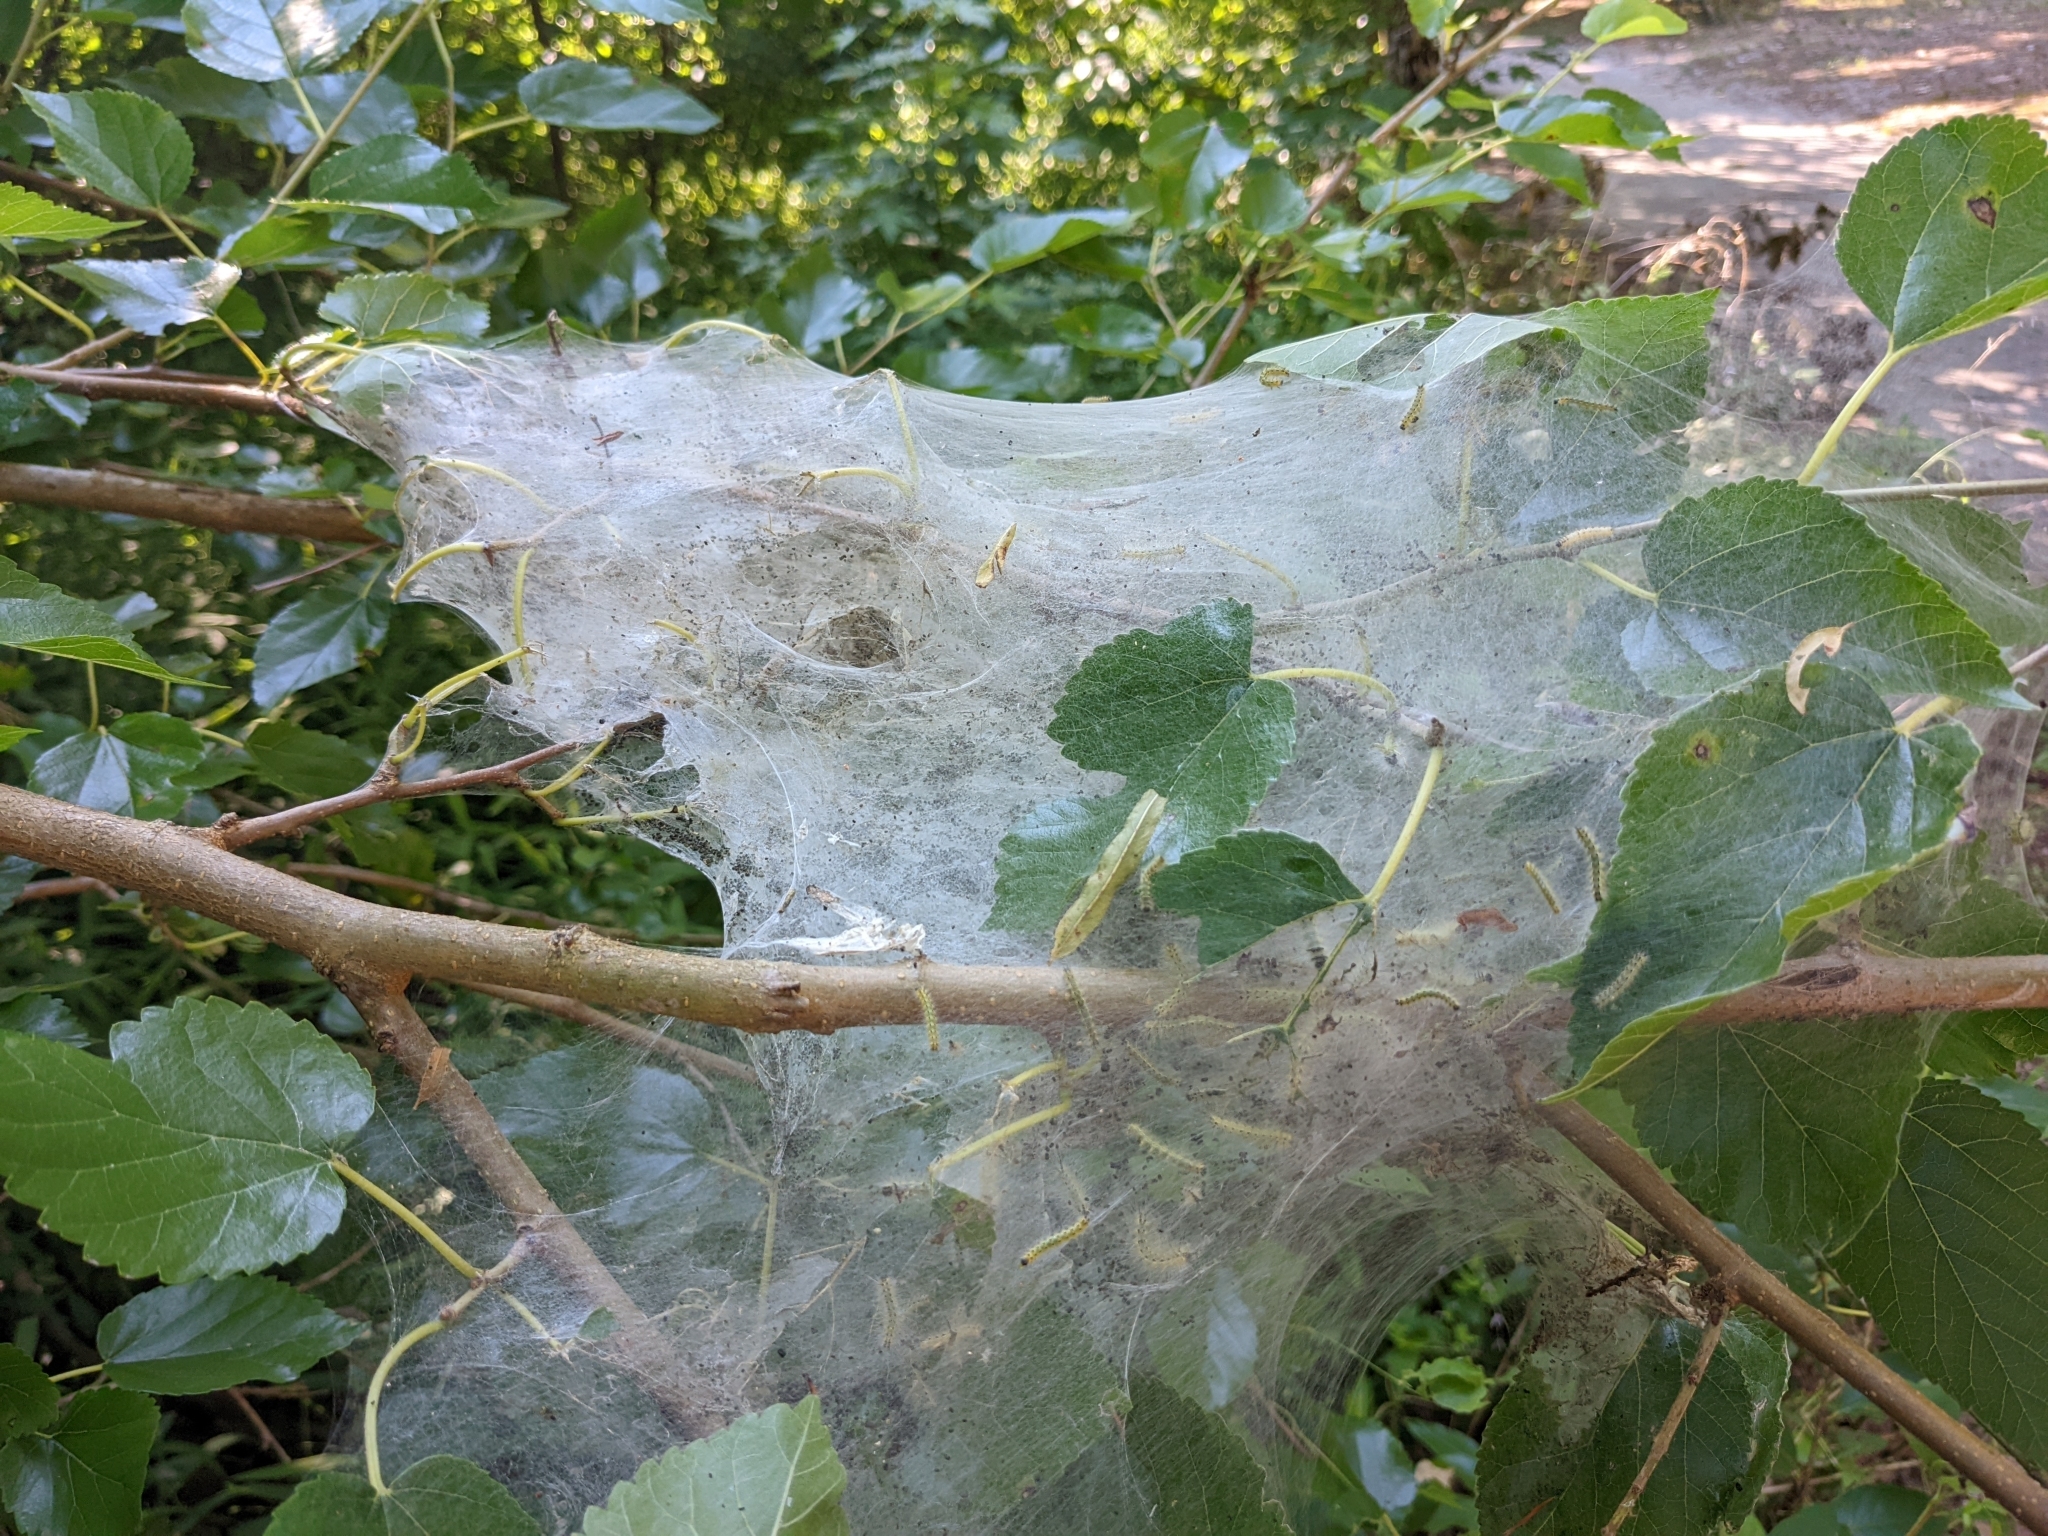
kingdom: Animalia
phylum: Arthropoda
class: Insecta
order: Lepidoptera
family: Erebidae
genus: Hyphantria
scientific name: Hyphantria cunea
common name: American white moth
